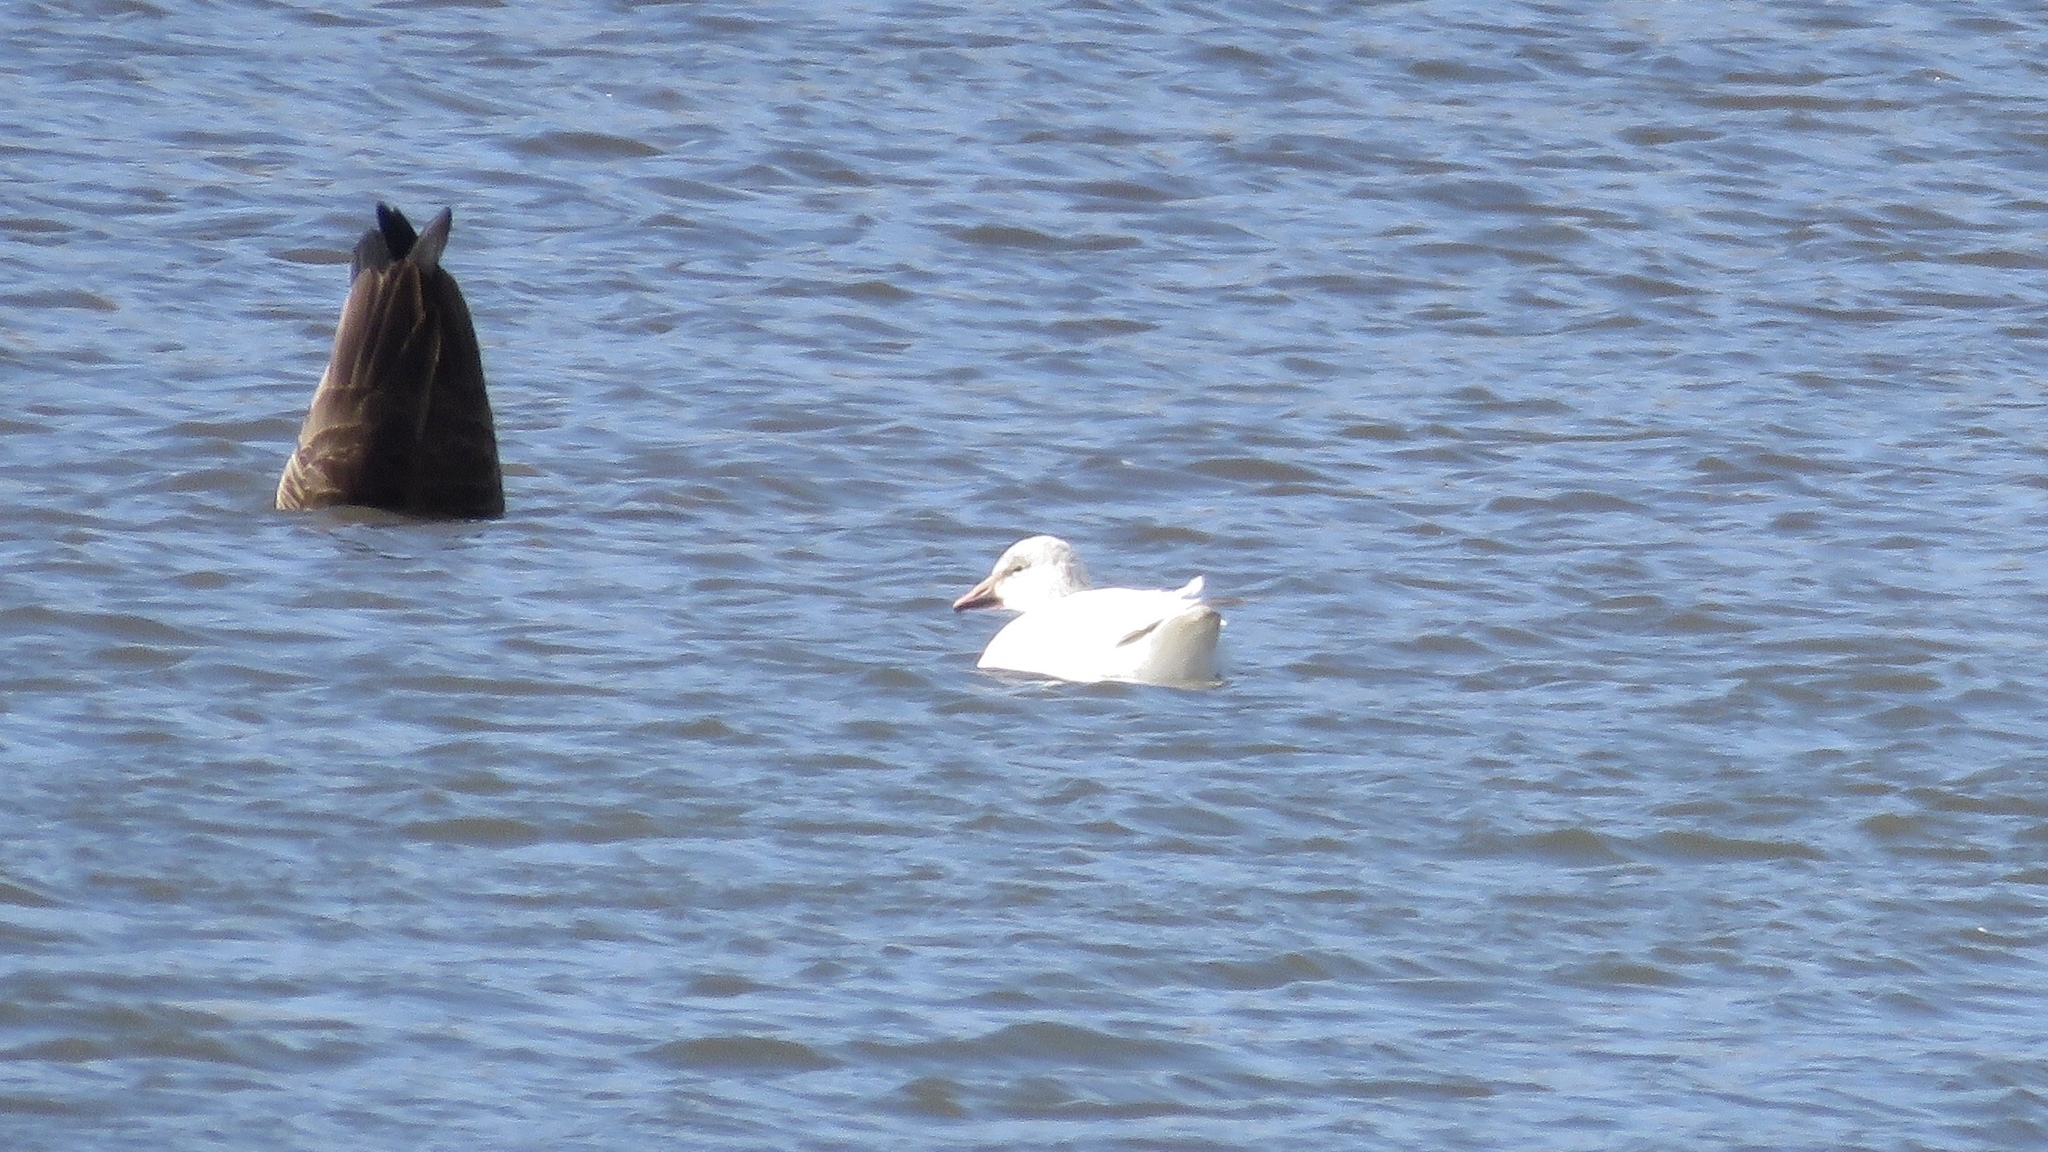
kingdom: Animalia
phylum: Chordata
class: Aves
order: Anseriformes
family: Anatidae
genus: Anser
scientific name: Anser caerulescens
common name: Snow goose
